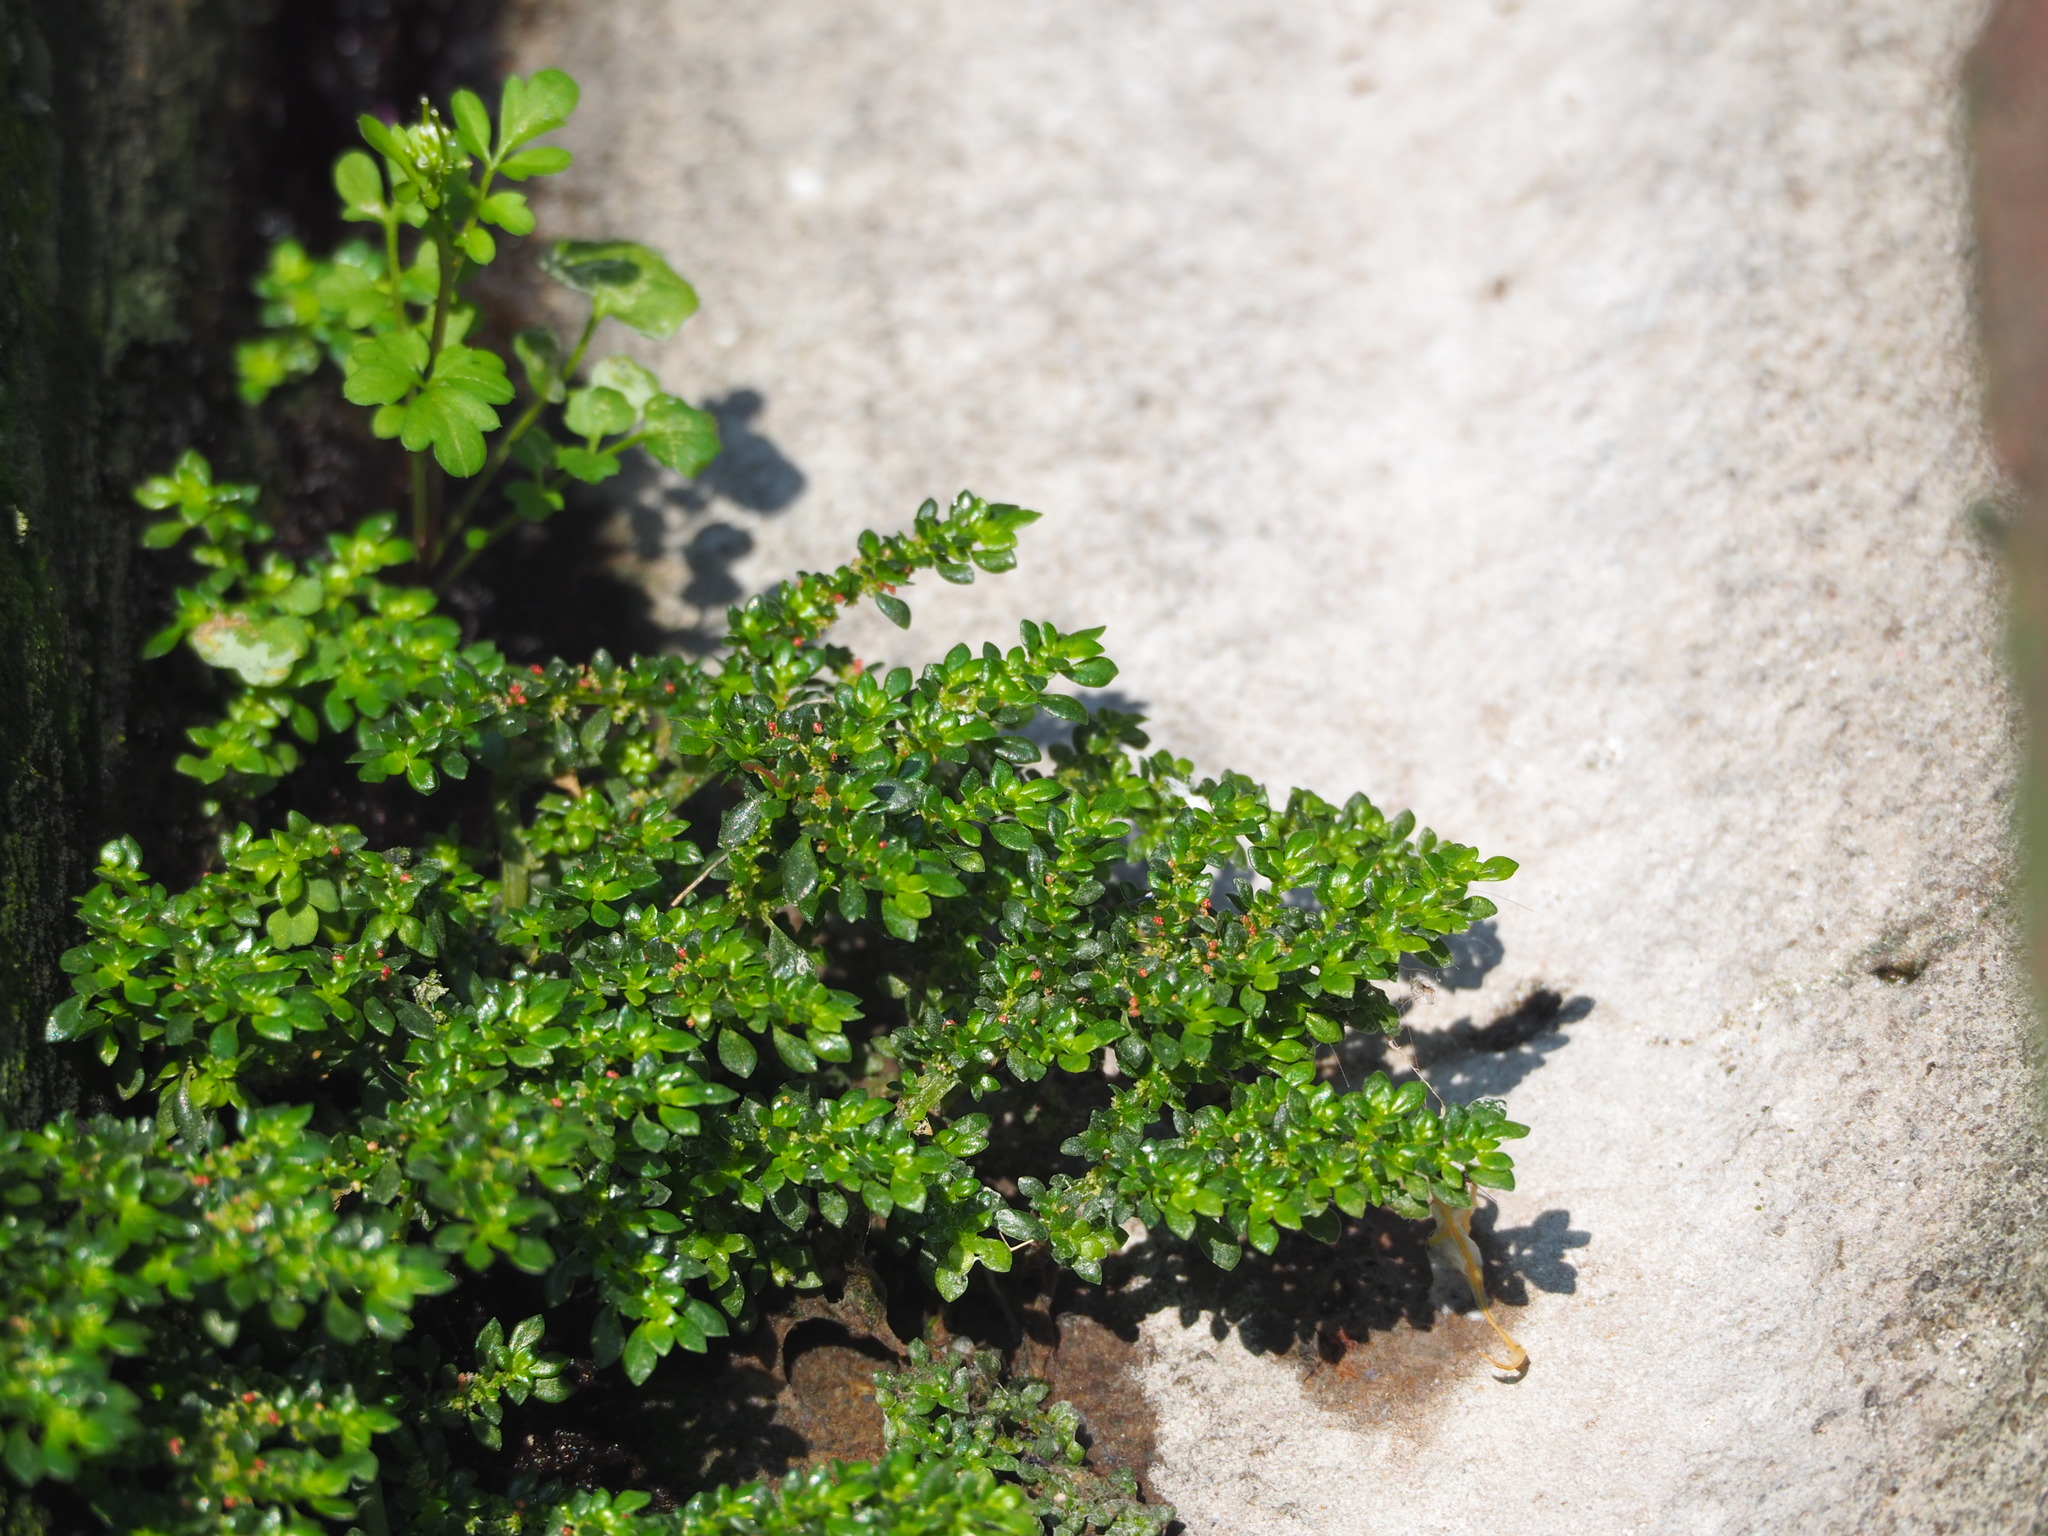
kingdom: Plantae
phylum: Tracheophyta
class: Magnoliopsida
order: Rosales
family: Urticaceae
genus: Pilea
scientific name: Pilea microphylla
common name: Artillery-plant
